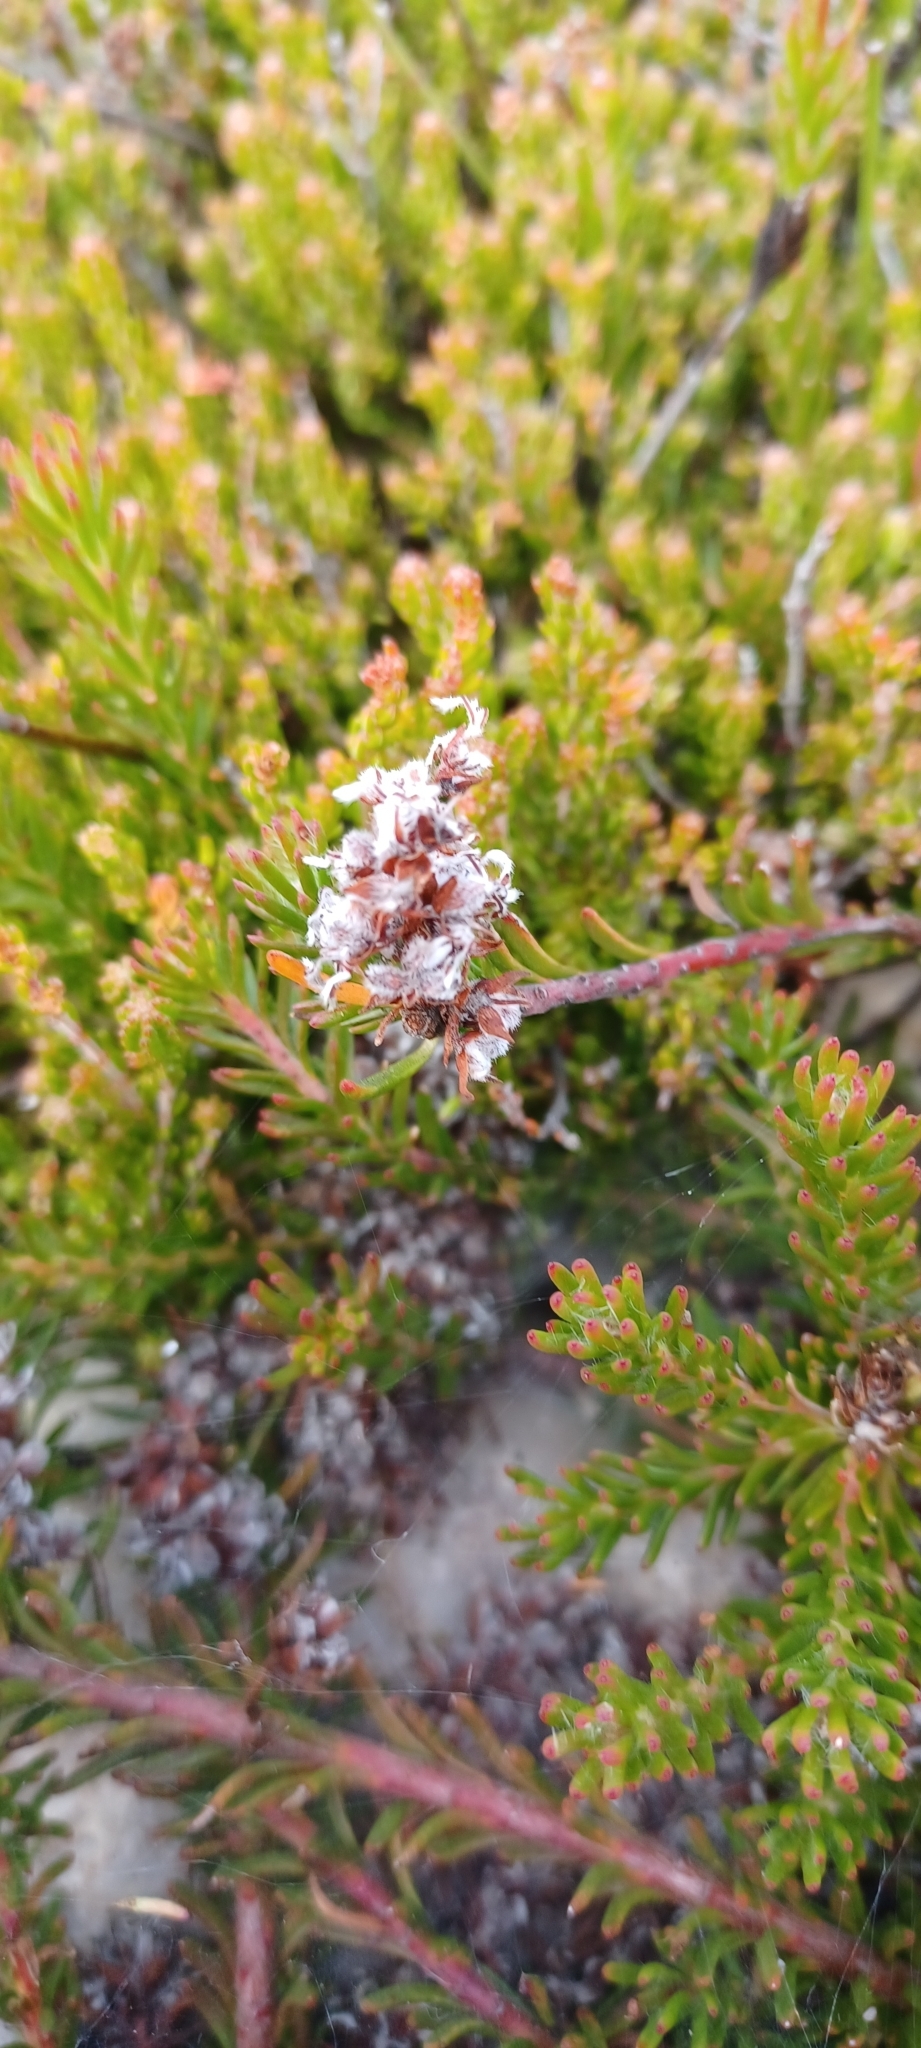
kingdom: Plantae
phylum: Tracheophyta
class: Magnoliopsida
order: Proteales
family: Proteaceae
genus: Spatalla
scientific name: Spatalla confusa
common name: Long-tube spoon
